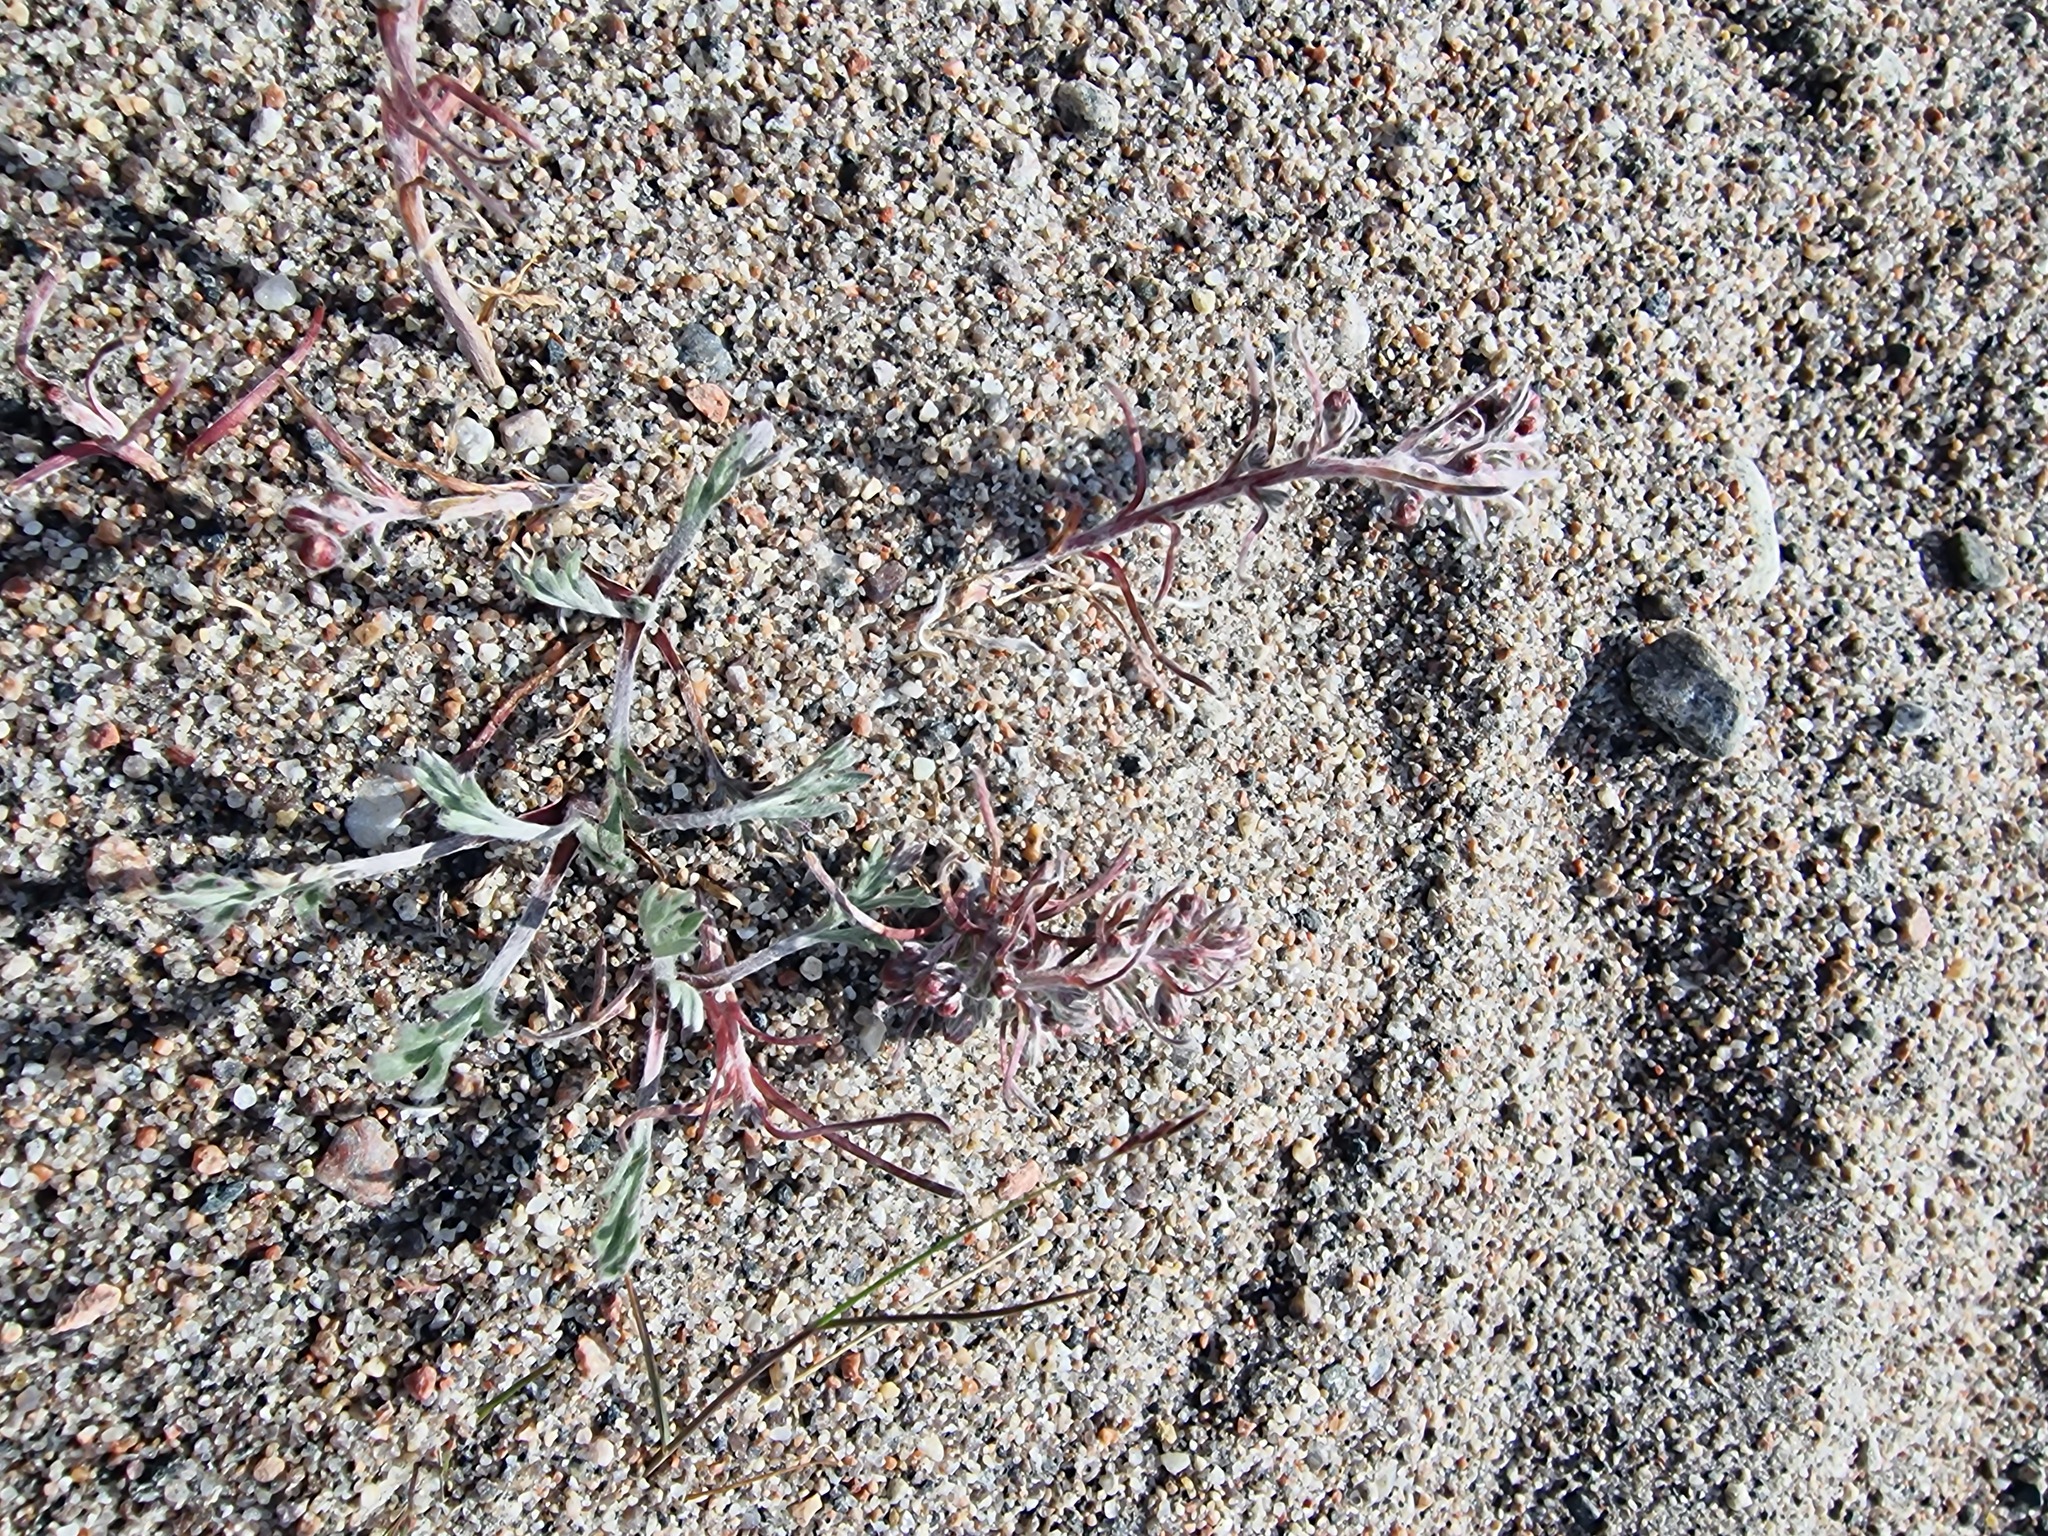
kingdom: Plantae
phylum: Tracheophyta
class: Magnoliopsida
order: Asterales
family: Asteraceae
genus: Artemisia
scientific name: Artemisia borealis
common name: Boreal sage
